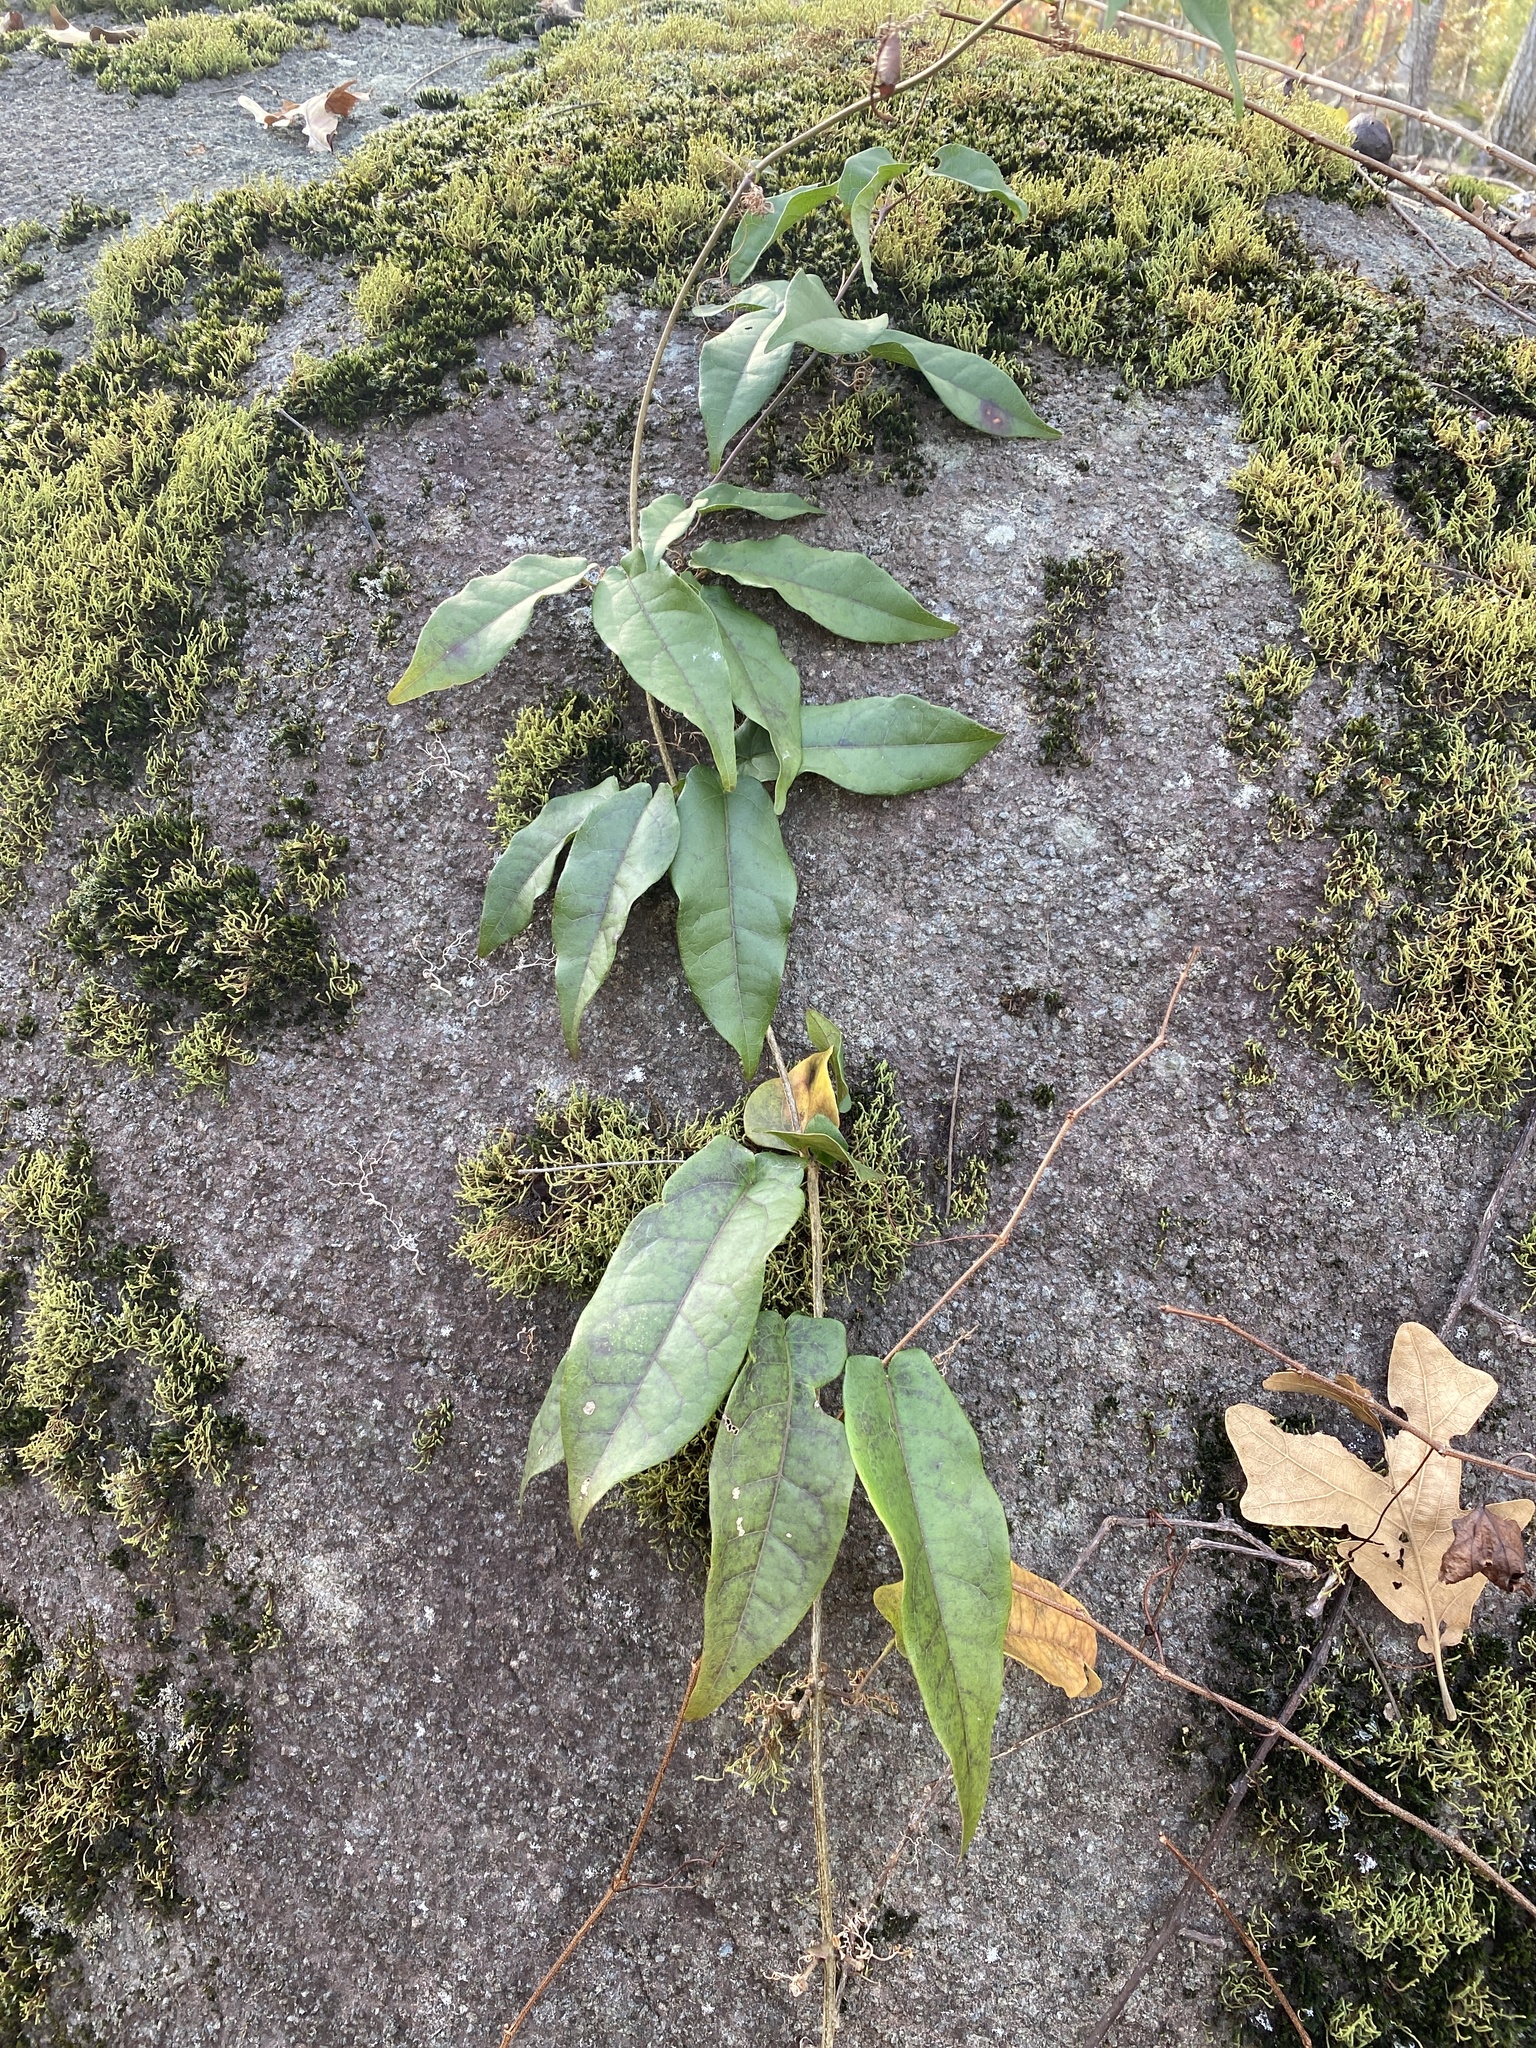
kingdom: Plantae
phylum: Tracheophyta
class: Magnoliopsida
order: Lamiales
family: Bignoniaceae
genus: Bignonia
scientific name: Bignonia capreolata
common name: Crossvine
